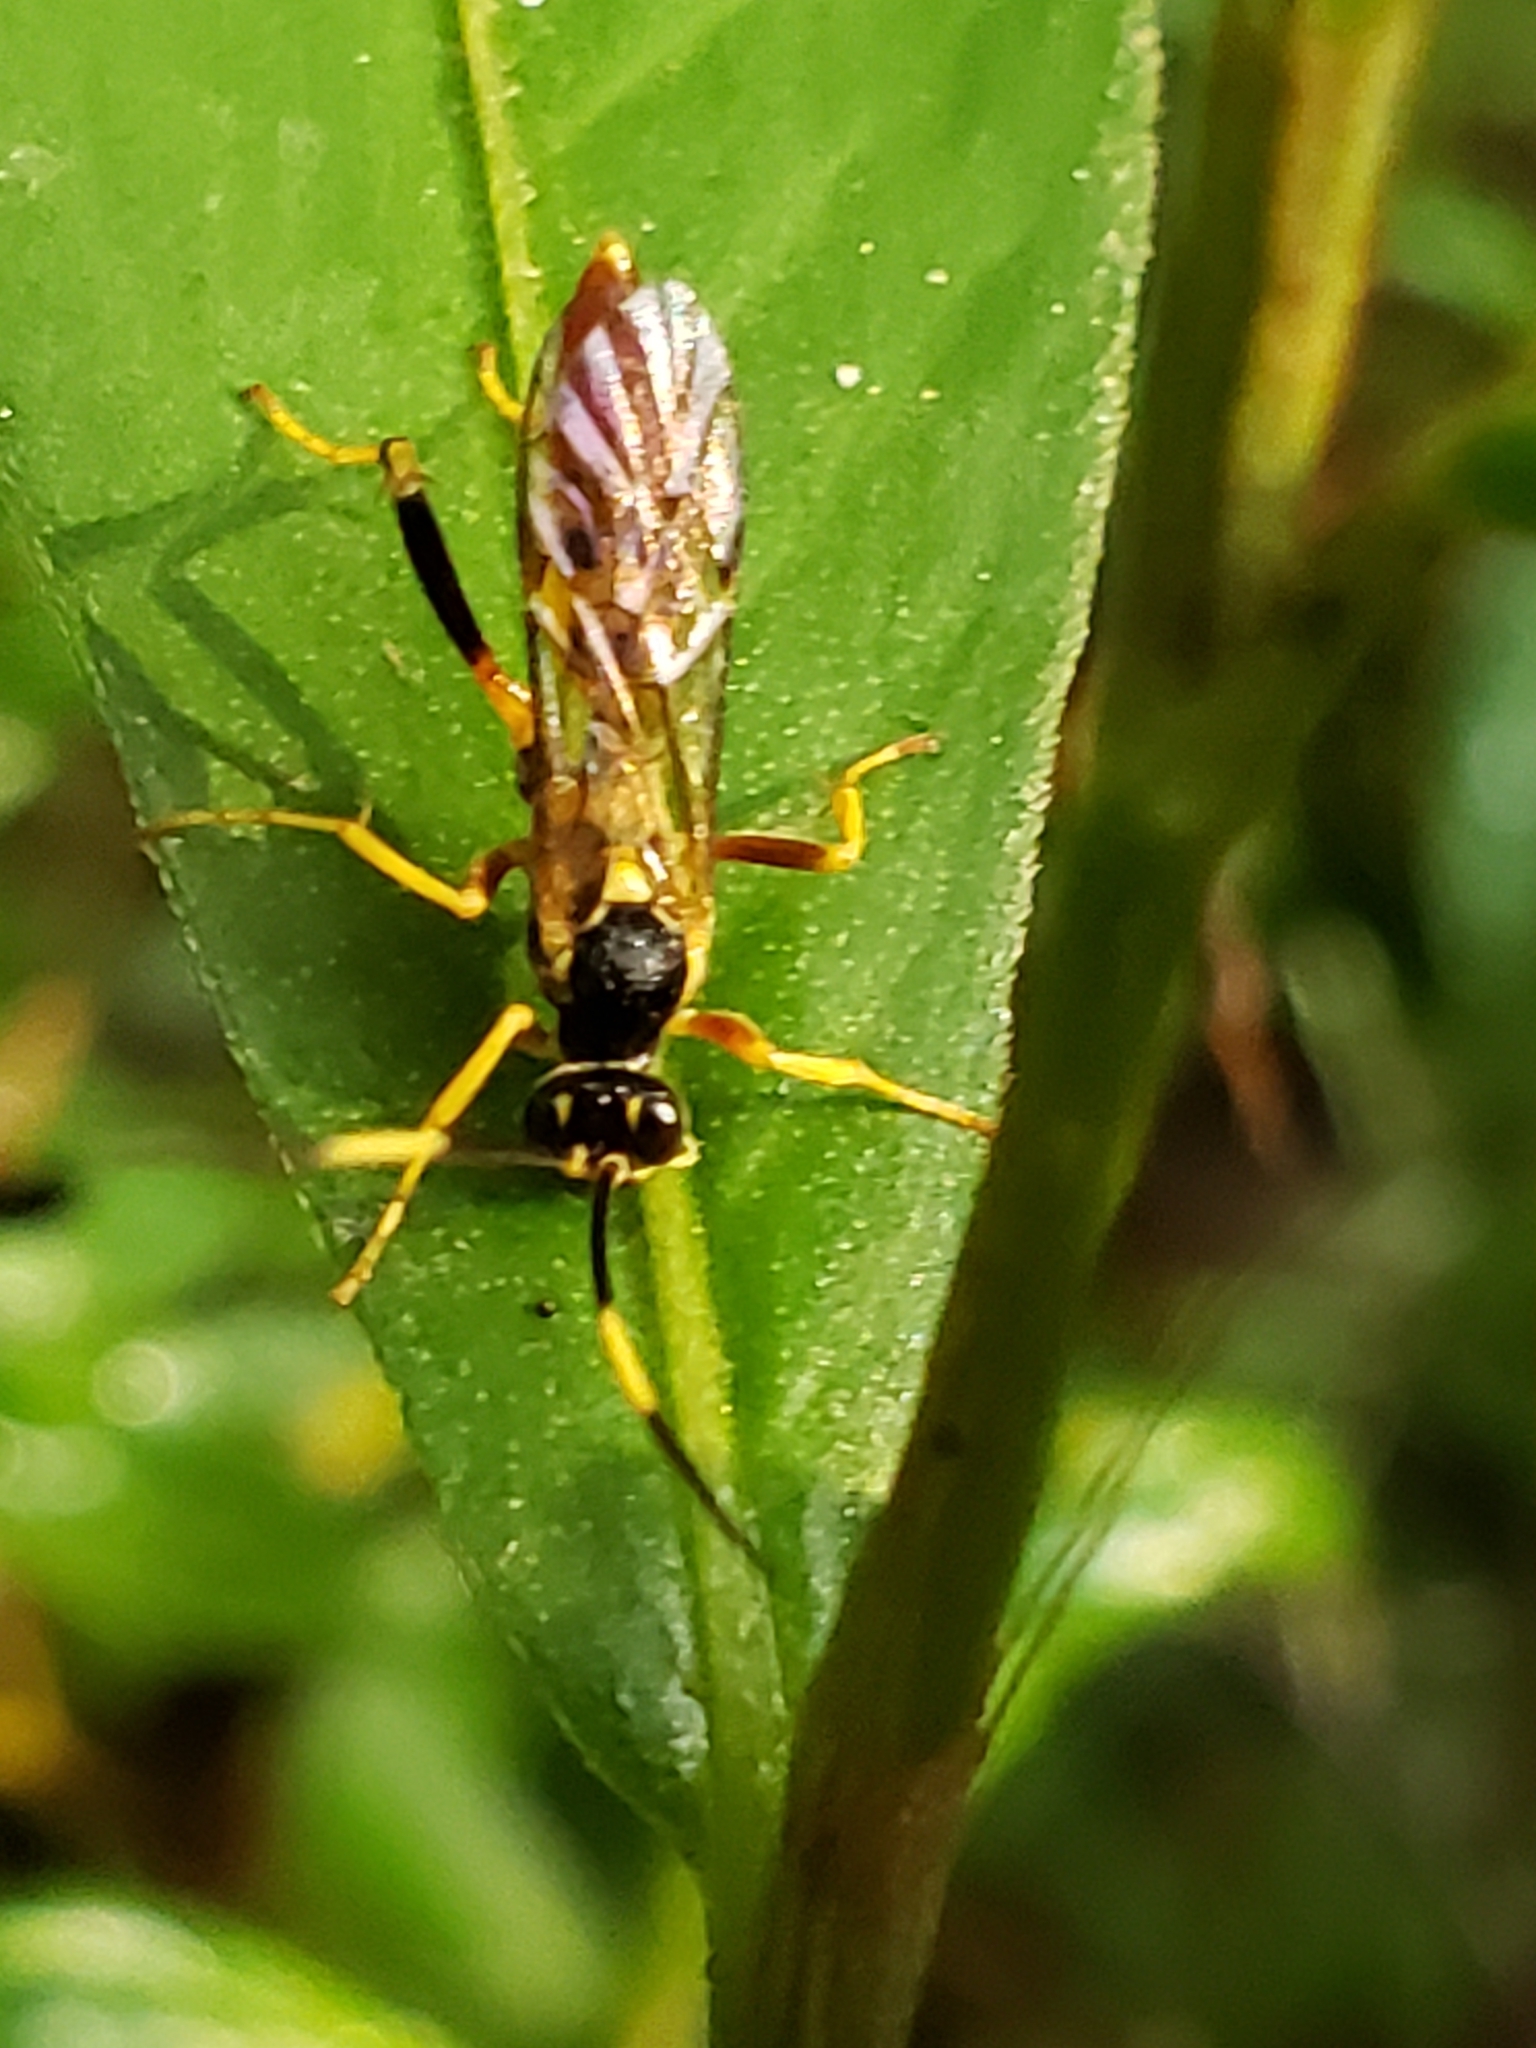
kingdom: Animalia
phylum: Arthropoda
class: Insecta
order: Hymenoptera
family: Ichneumonidae
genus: Polytribax
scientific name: Polytribax contiguus
